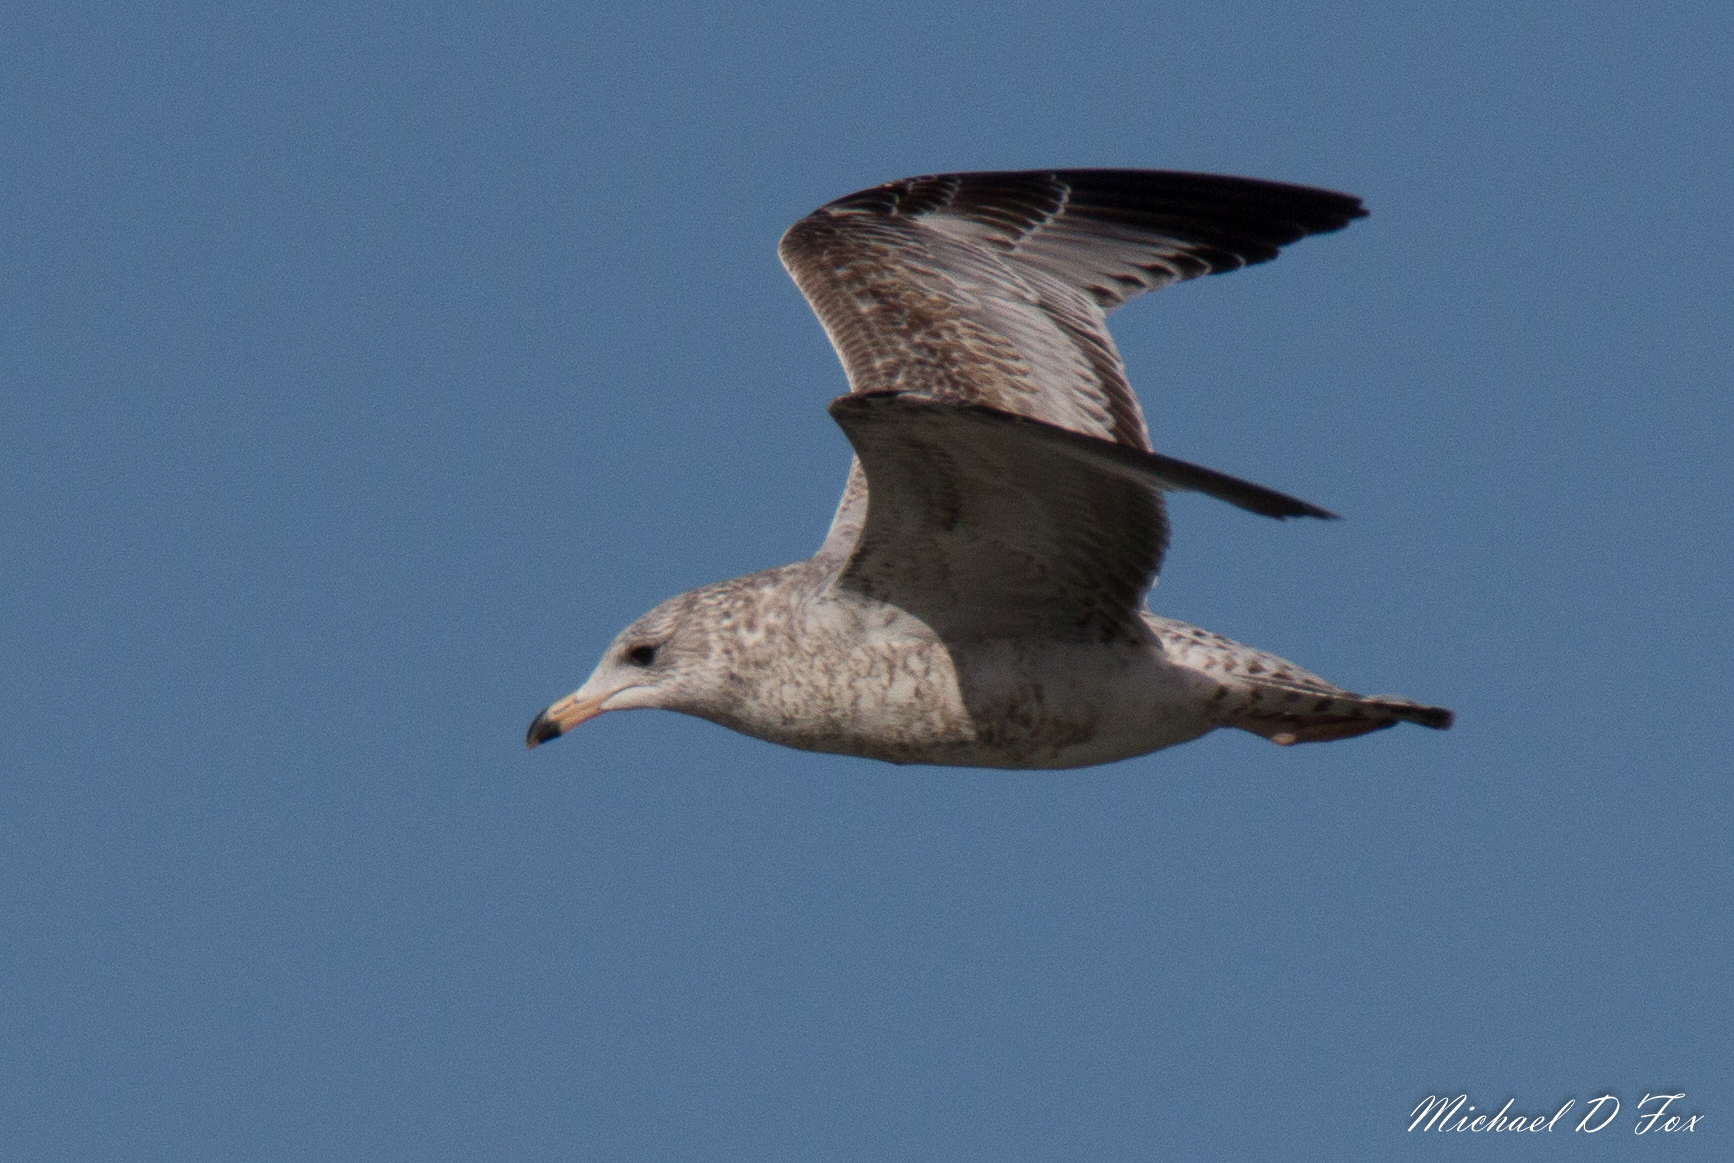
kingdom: Animalia
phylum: Chordata
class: Aves
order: Charadriiformes
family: Laridae
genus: Larus
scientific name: Larus delawarensis
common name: Ring-billed gull
